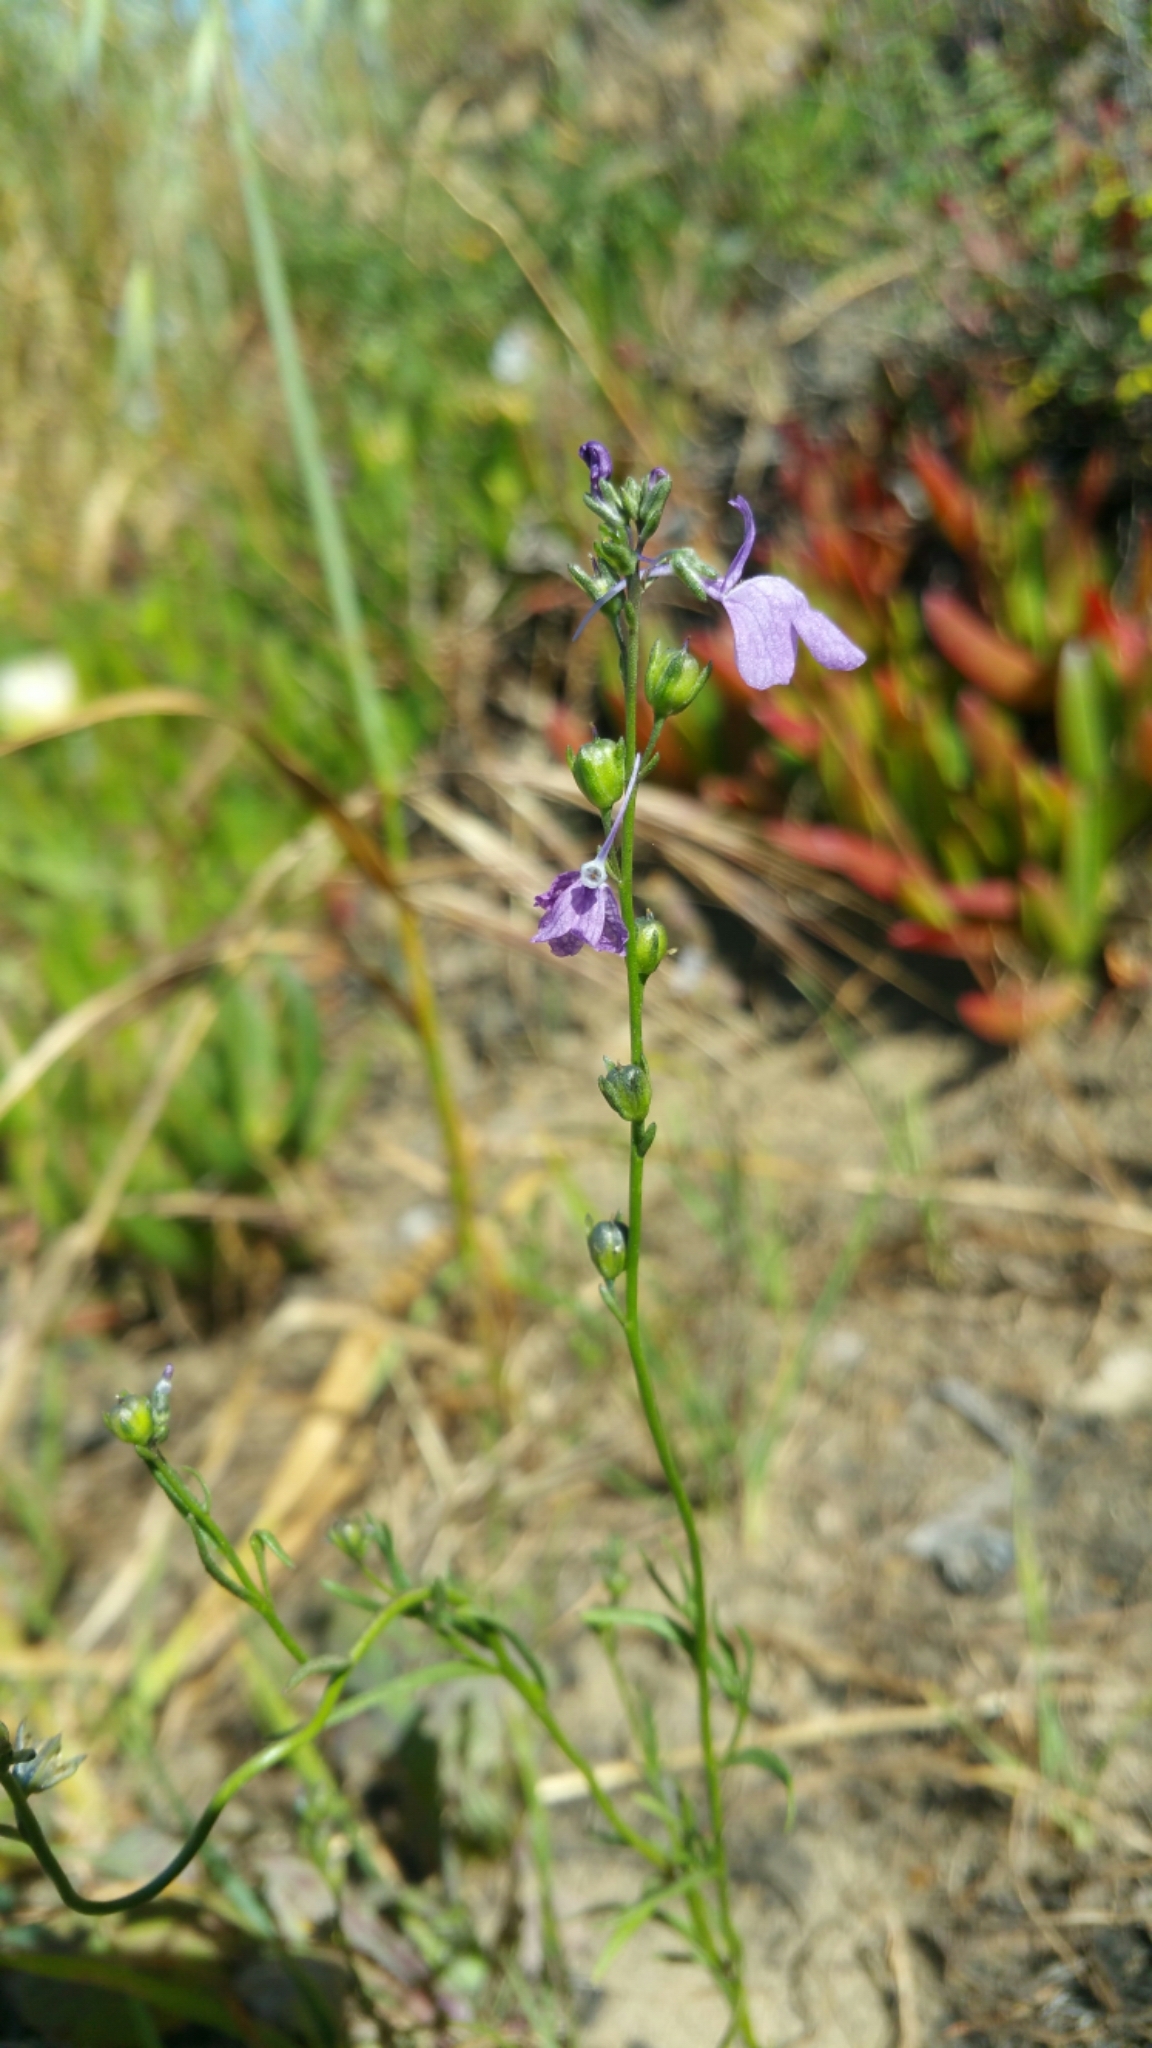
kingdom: Plantae
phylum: Tracheophyta
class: Magnoliopsida
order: Lamiales
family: Plantaginaceae
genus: Nuttallanthus
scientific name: Nuttallanthus texanus
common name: Texas toadflax
